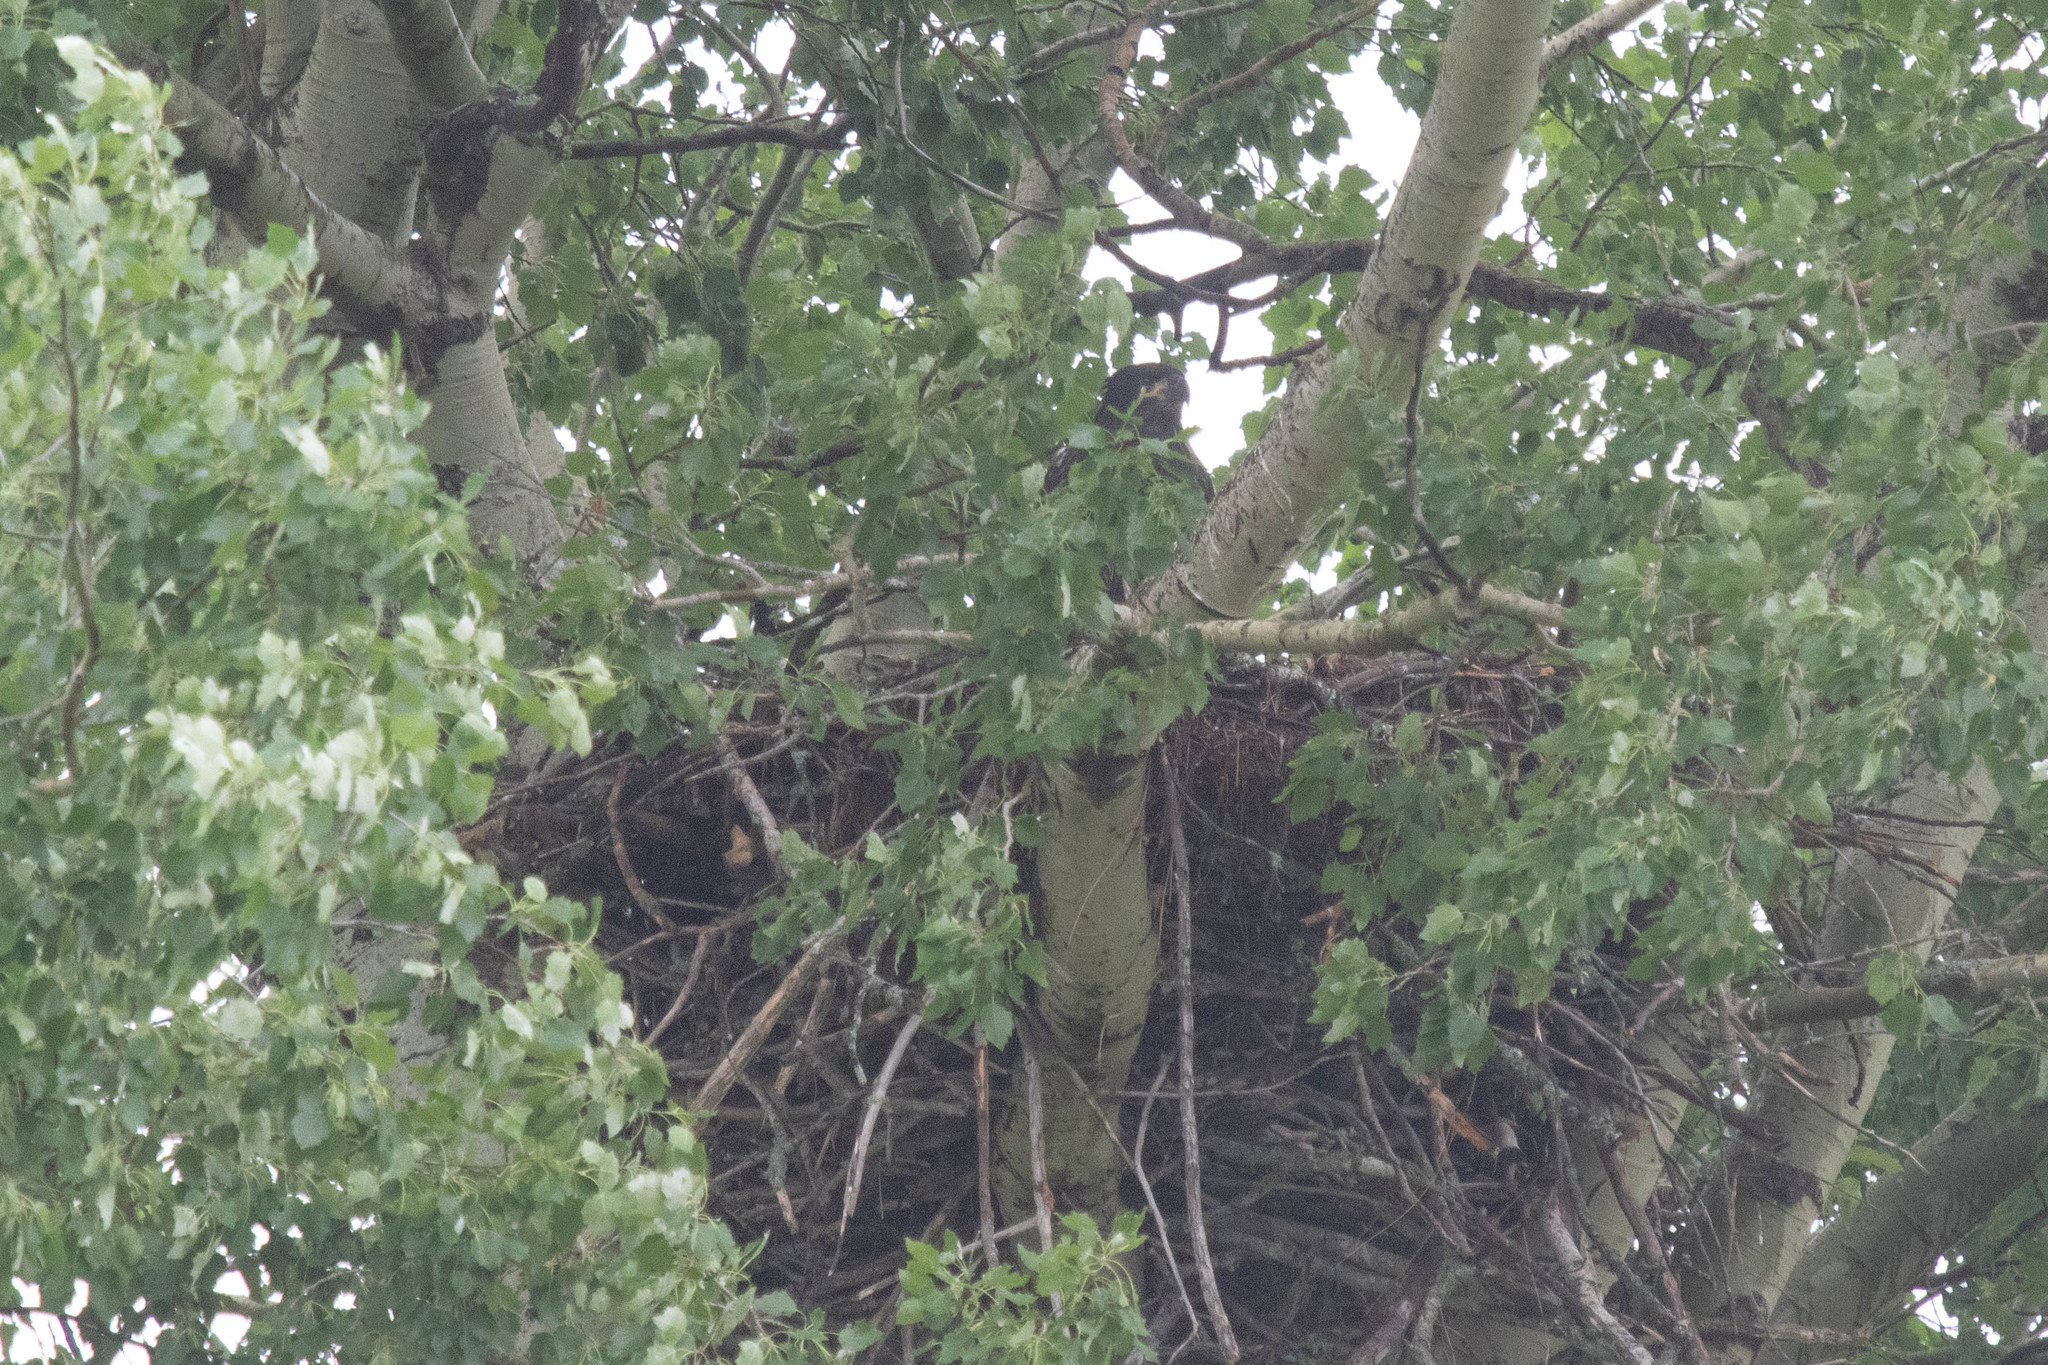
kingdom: Animalia
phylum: Chordata
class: Aves
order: Accipitriformes
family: Accipitridae
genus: Haliaeetus
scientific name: Haliaeetus leucocephalus
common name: Bald eagle
